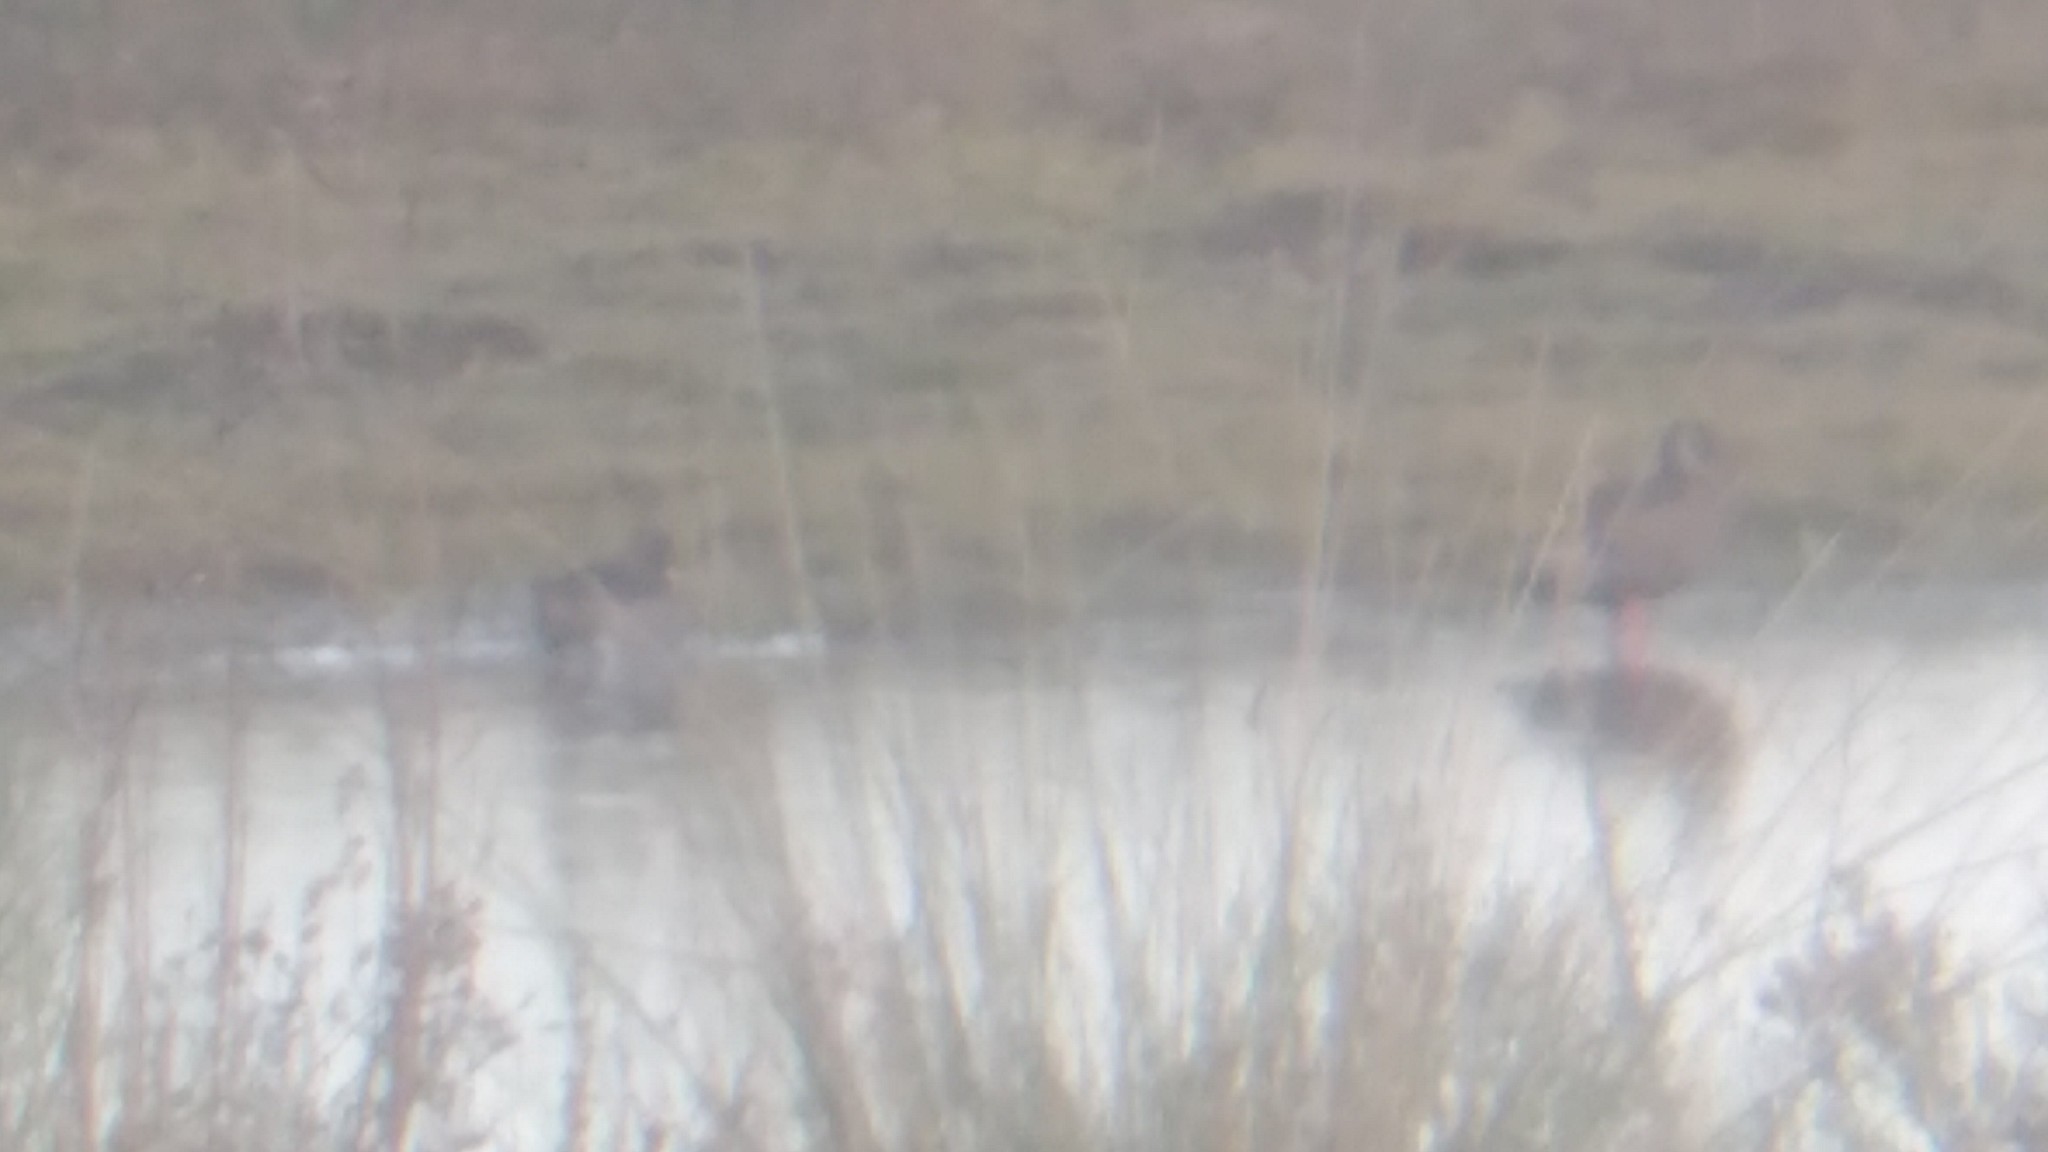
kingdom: Animalia
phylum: Chordata
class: Aves
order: Anseriformes
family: Anatidae
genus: Amazonetta
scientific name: Amazonetta brasiliensis
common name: Brazilian teal
